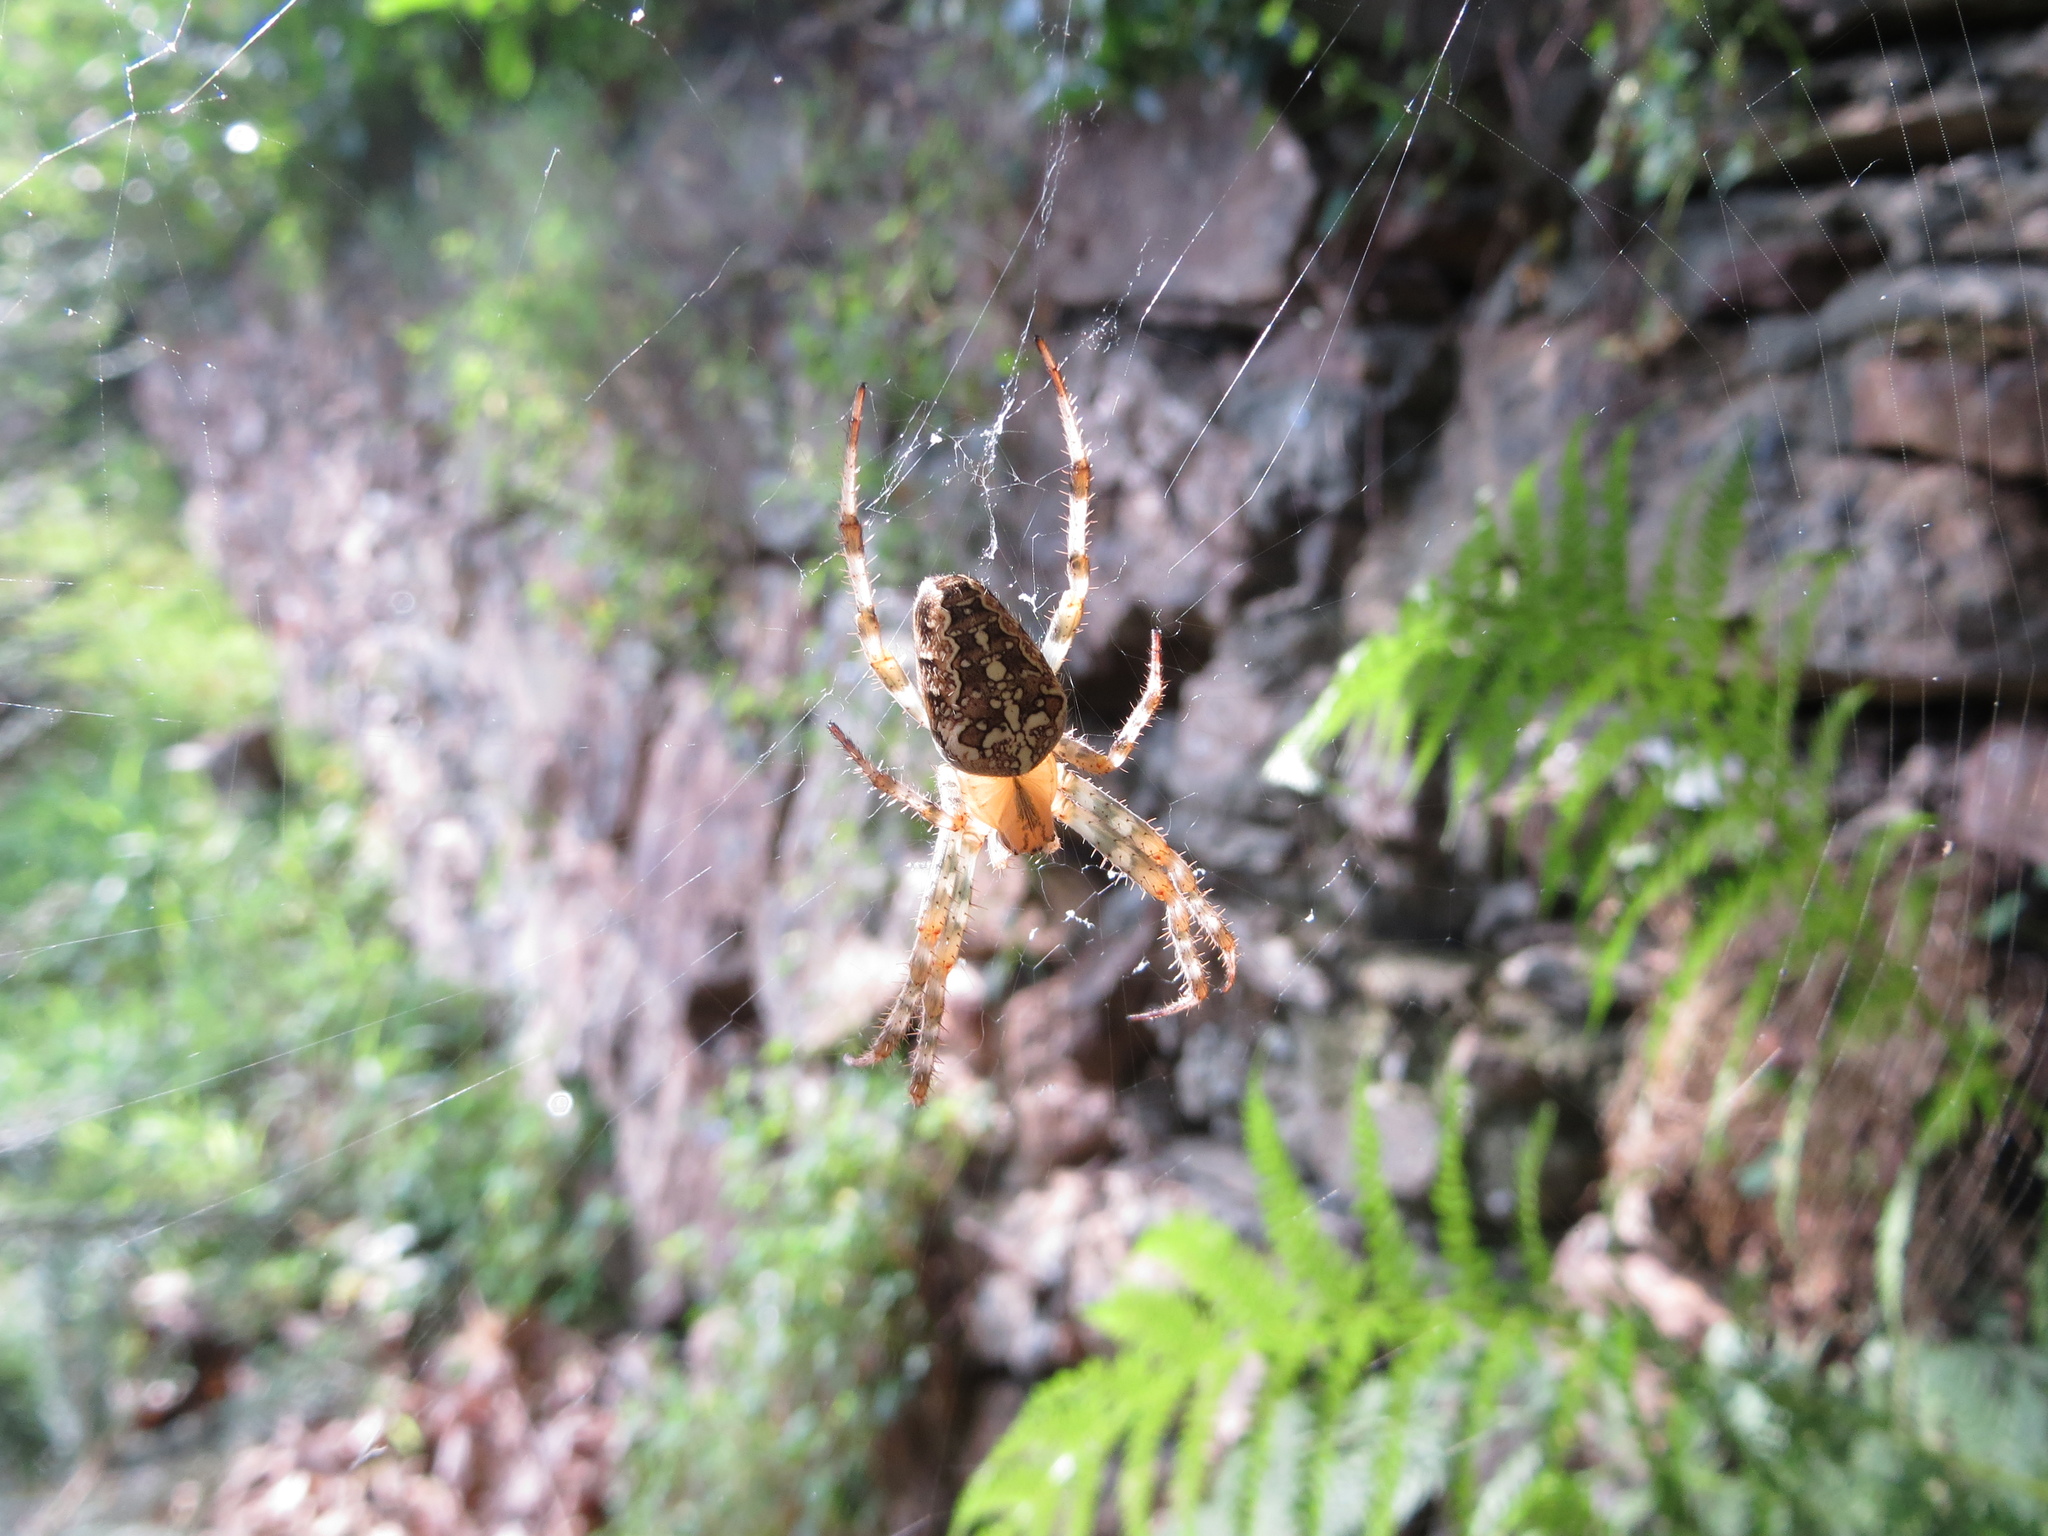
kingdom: Animalia
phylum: Arthropoda
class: Arachnida
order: Araneae
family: Araneidae
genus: Araneus
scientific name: Araneus diadematus
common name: Cross orbweaver
